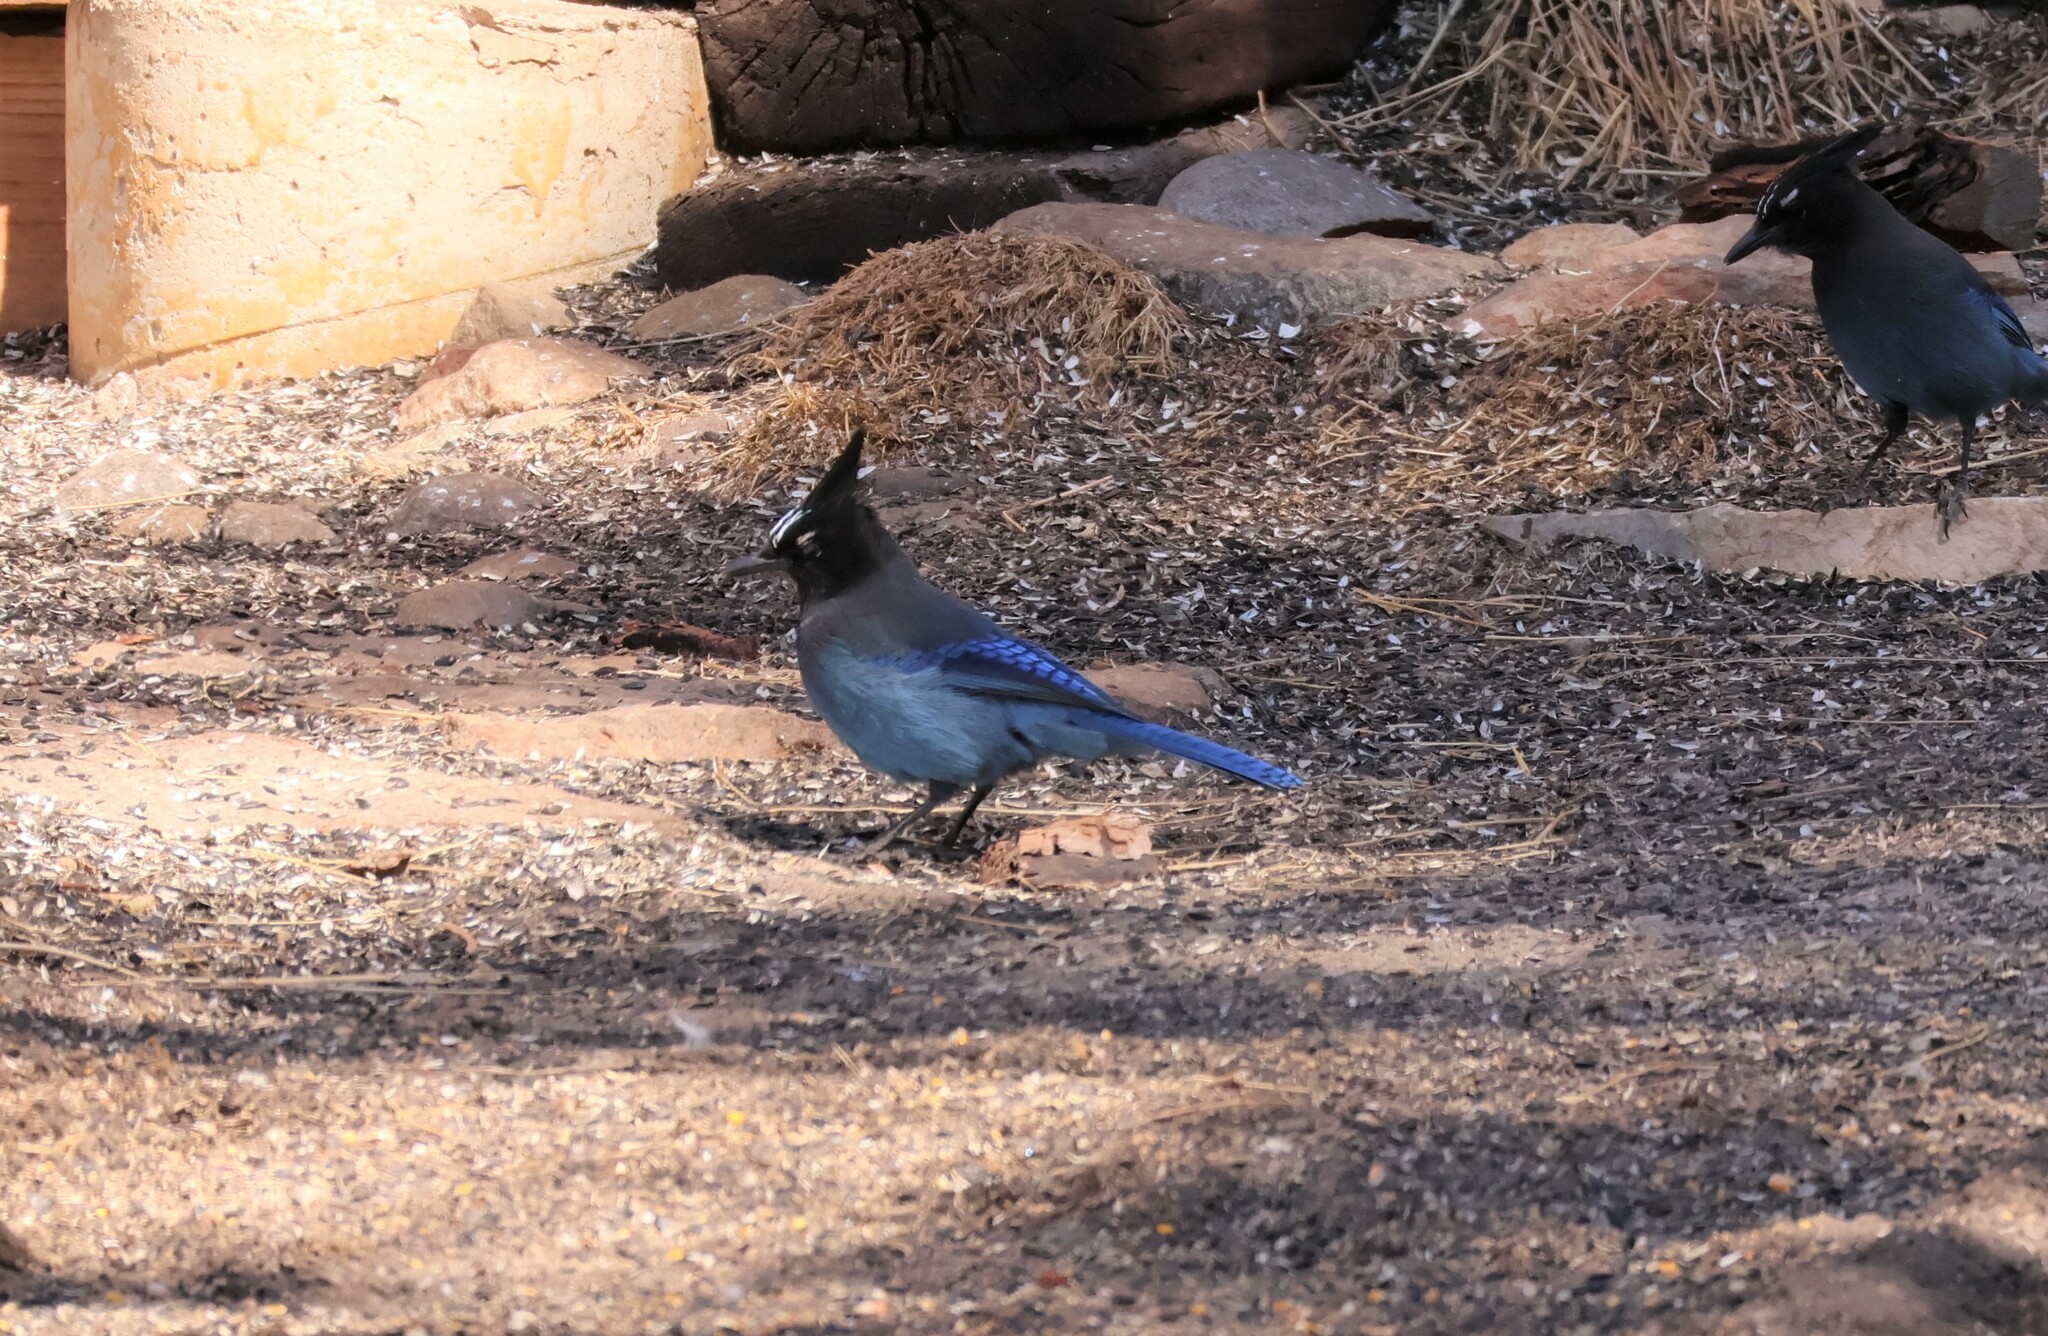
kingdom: Animalia
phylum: Chordata
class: Aves
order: Passeriformes
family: Corvidae
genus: Cyanocitta
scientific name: Cyanocitta stelleri
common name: Steller's jay
